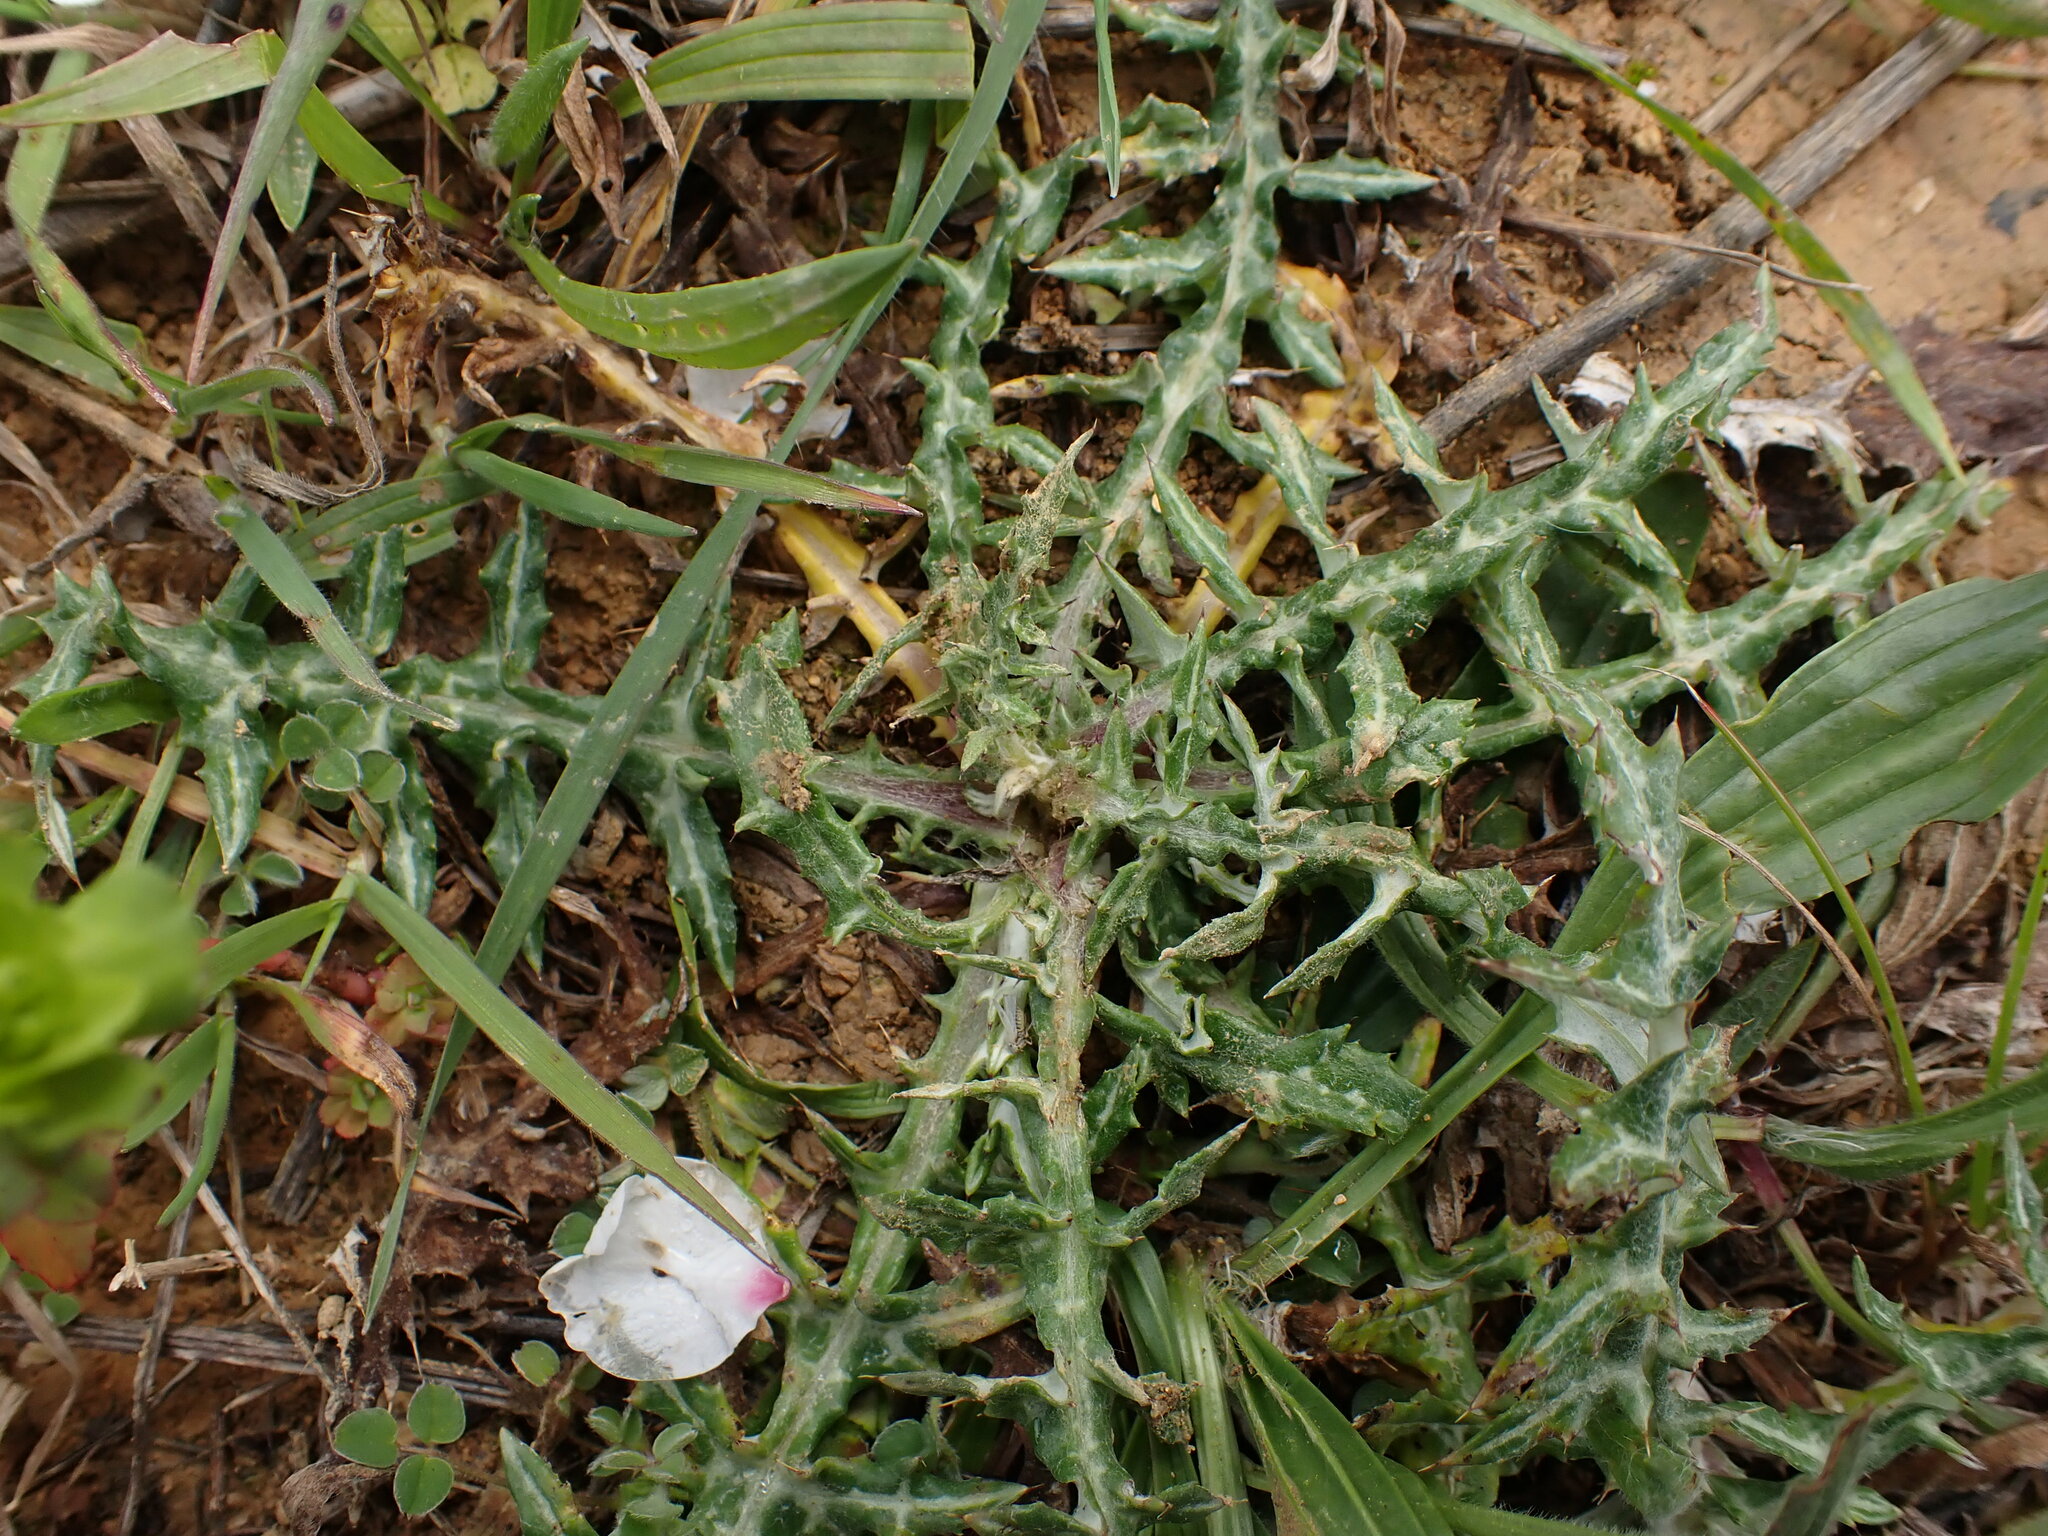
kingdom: Plantae
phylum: Tracheophyta
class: Magnoliopsida
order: Asterales
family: Asteraceae
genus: Galactites
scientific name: Galactites tomentosa
